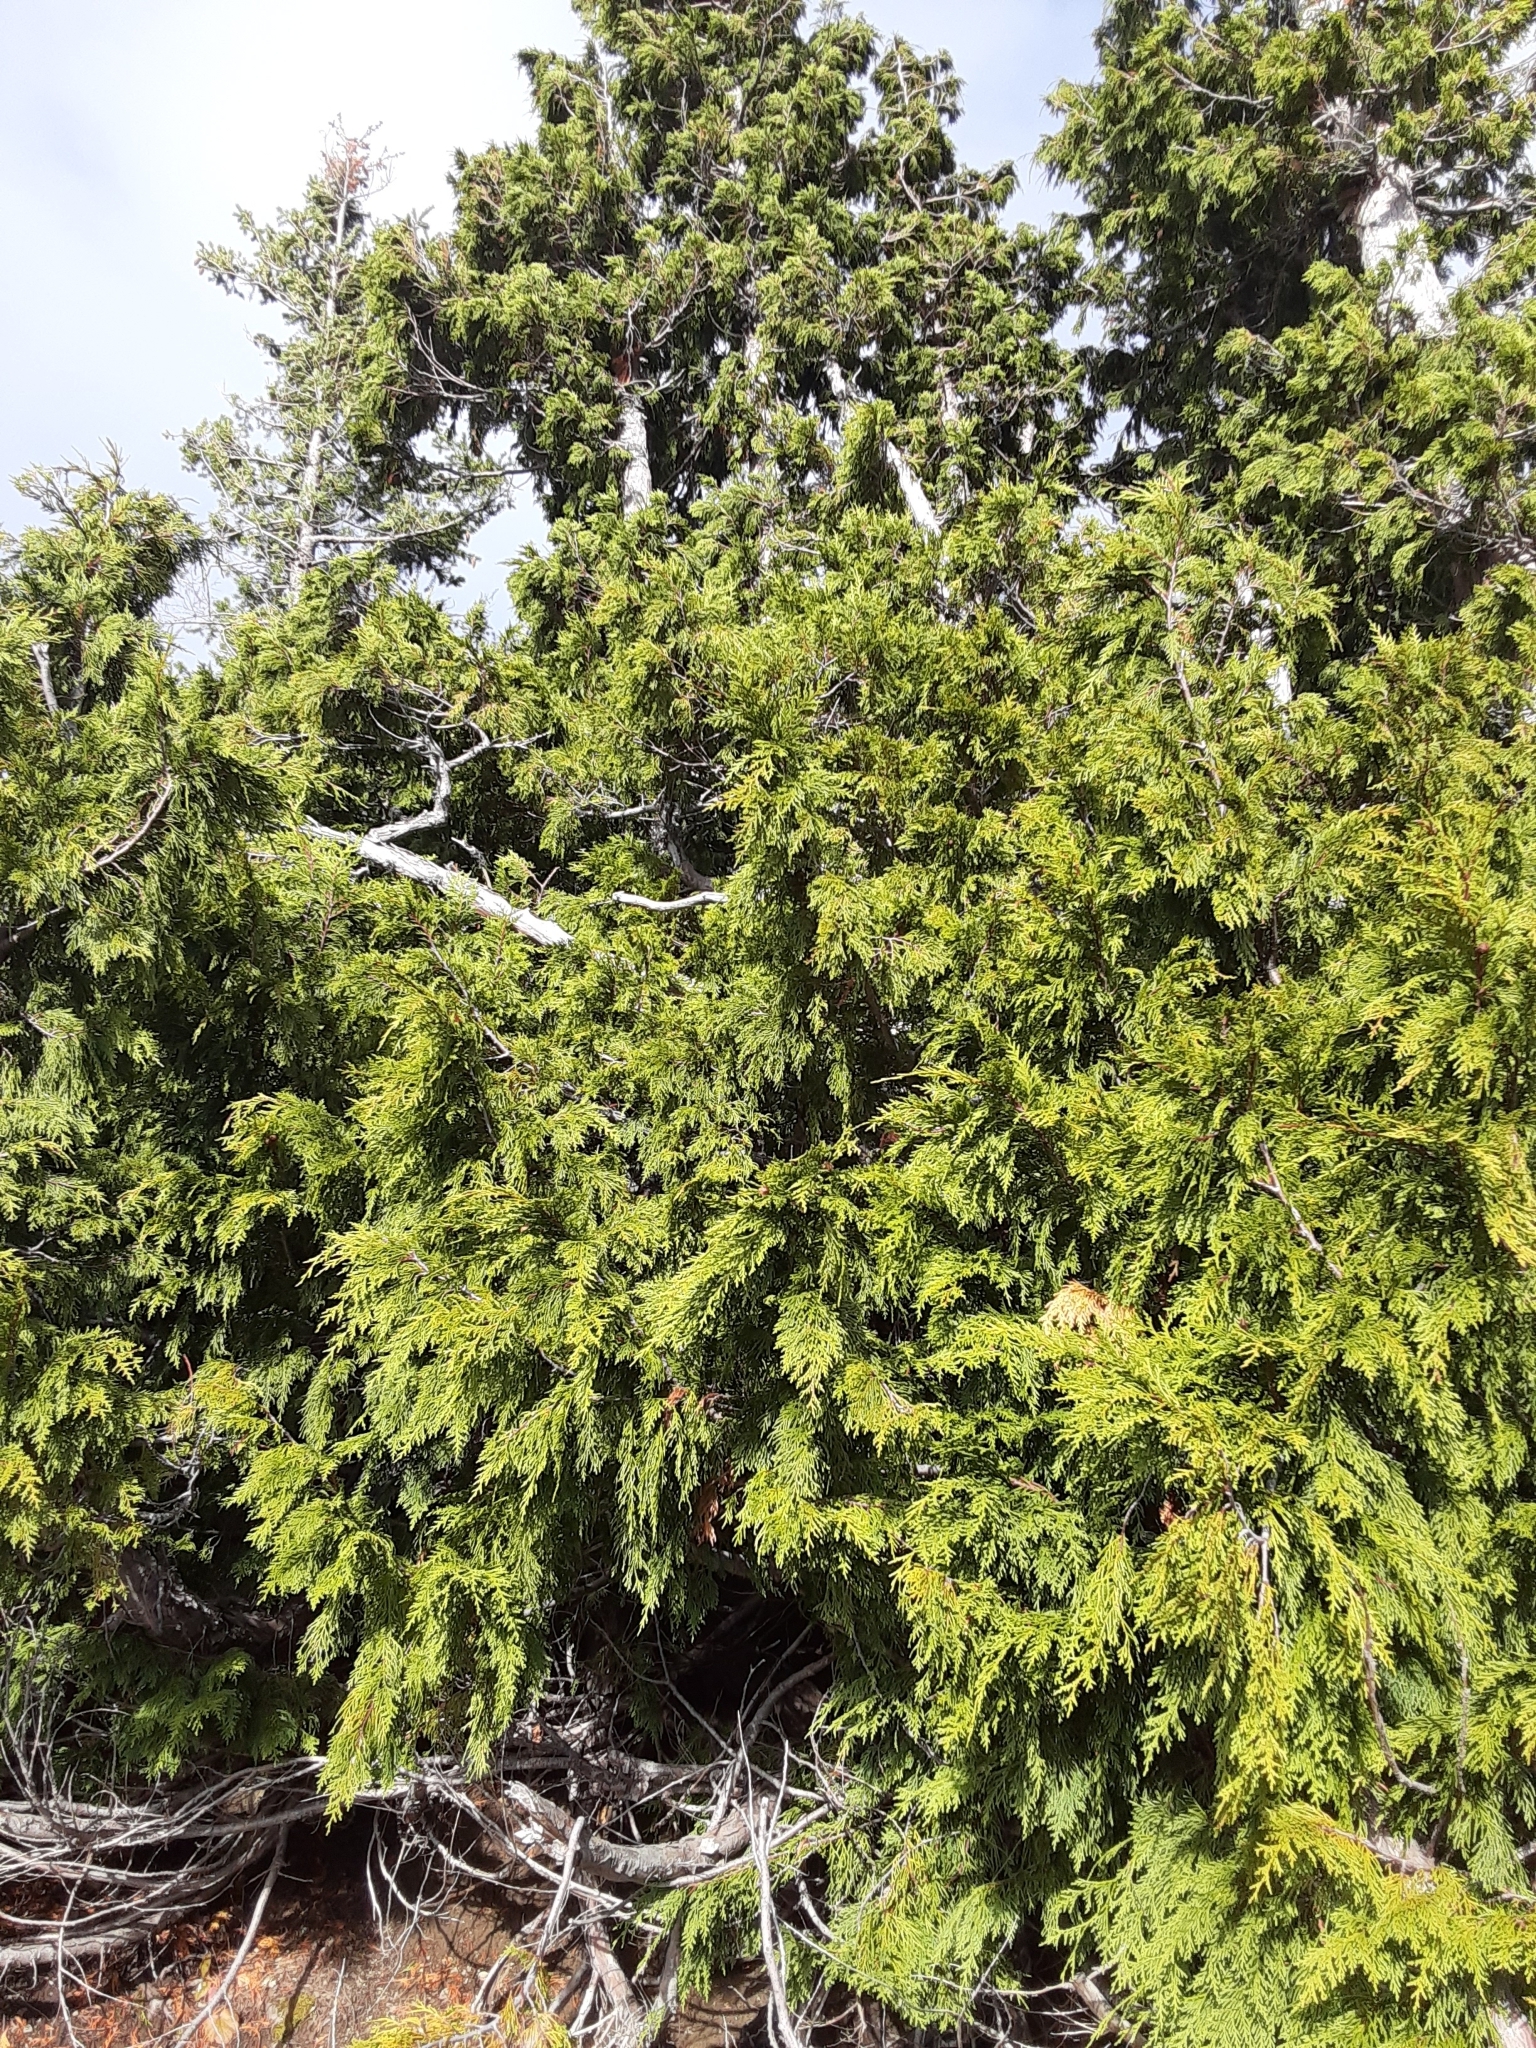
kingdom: Plantae
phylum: Tracheophyta
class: Pinopsida
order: Pinales
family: Cupressaceae
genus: Xanthocyparis
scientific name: Xanthocyparis nootkatensis
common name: Nootka cypress
